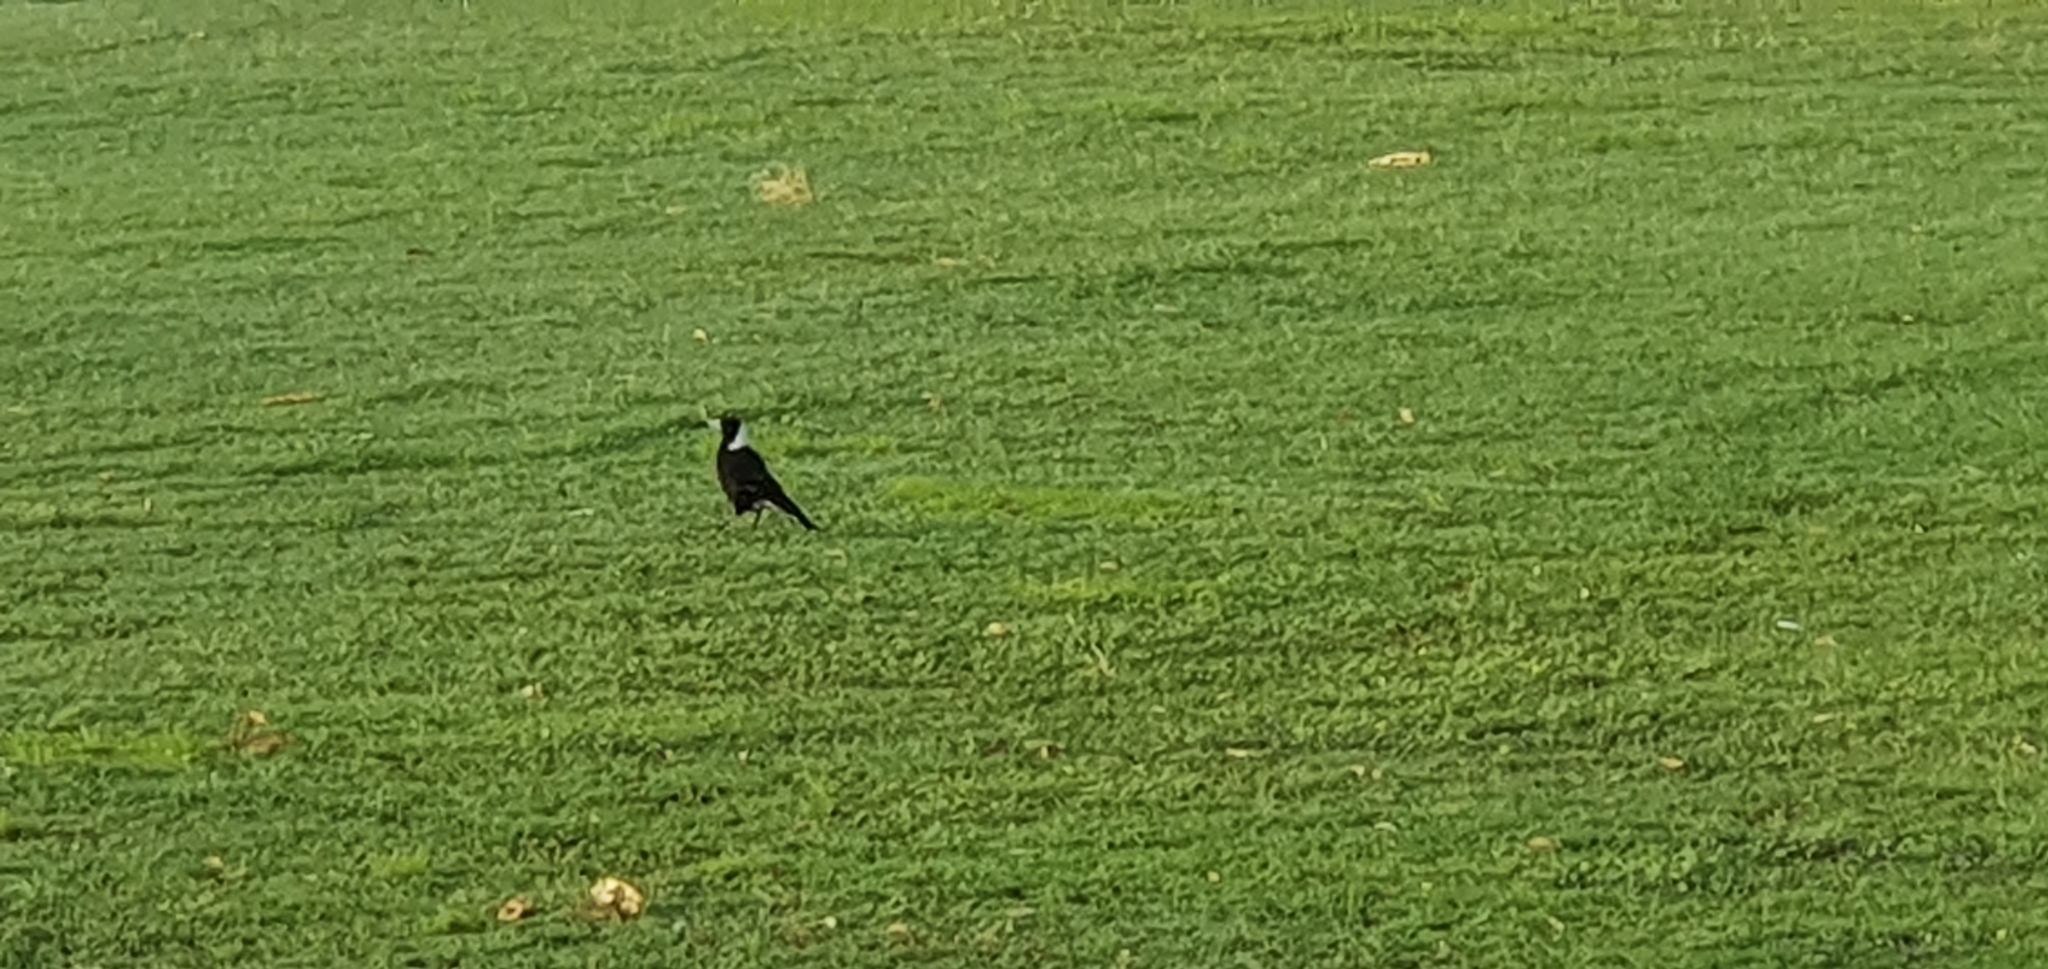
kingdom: Animalia
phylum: Chordata
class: Aves
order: Passeriformes
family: Cracticidae
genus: Gymnorhina
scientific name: Gymnorhina tibicen
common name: Australian magpie
